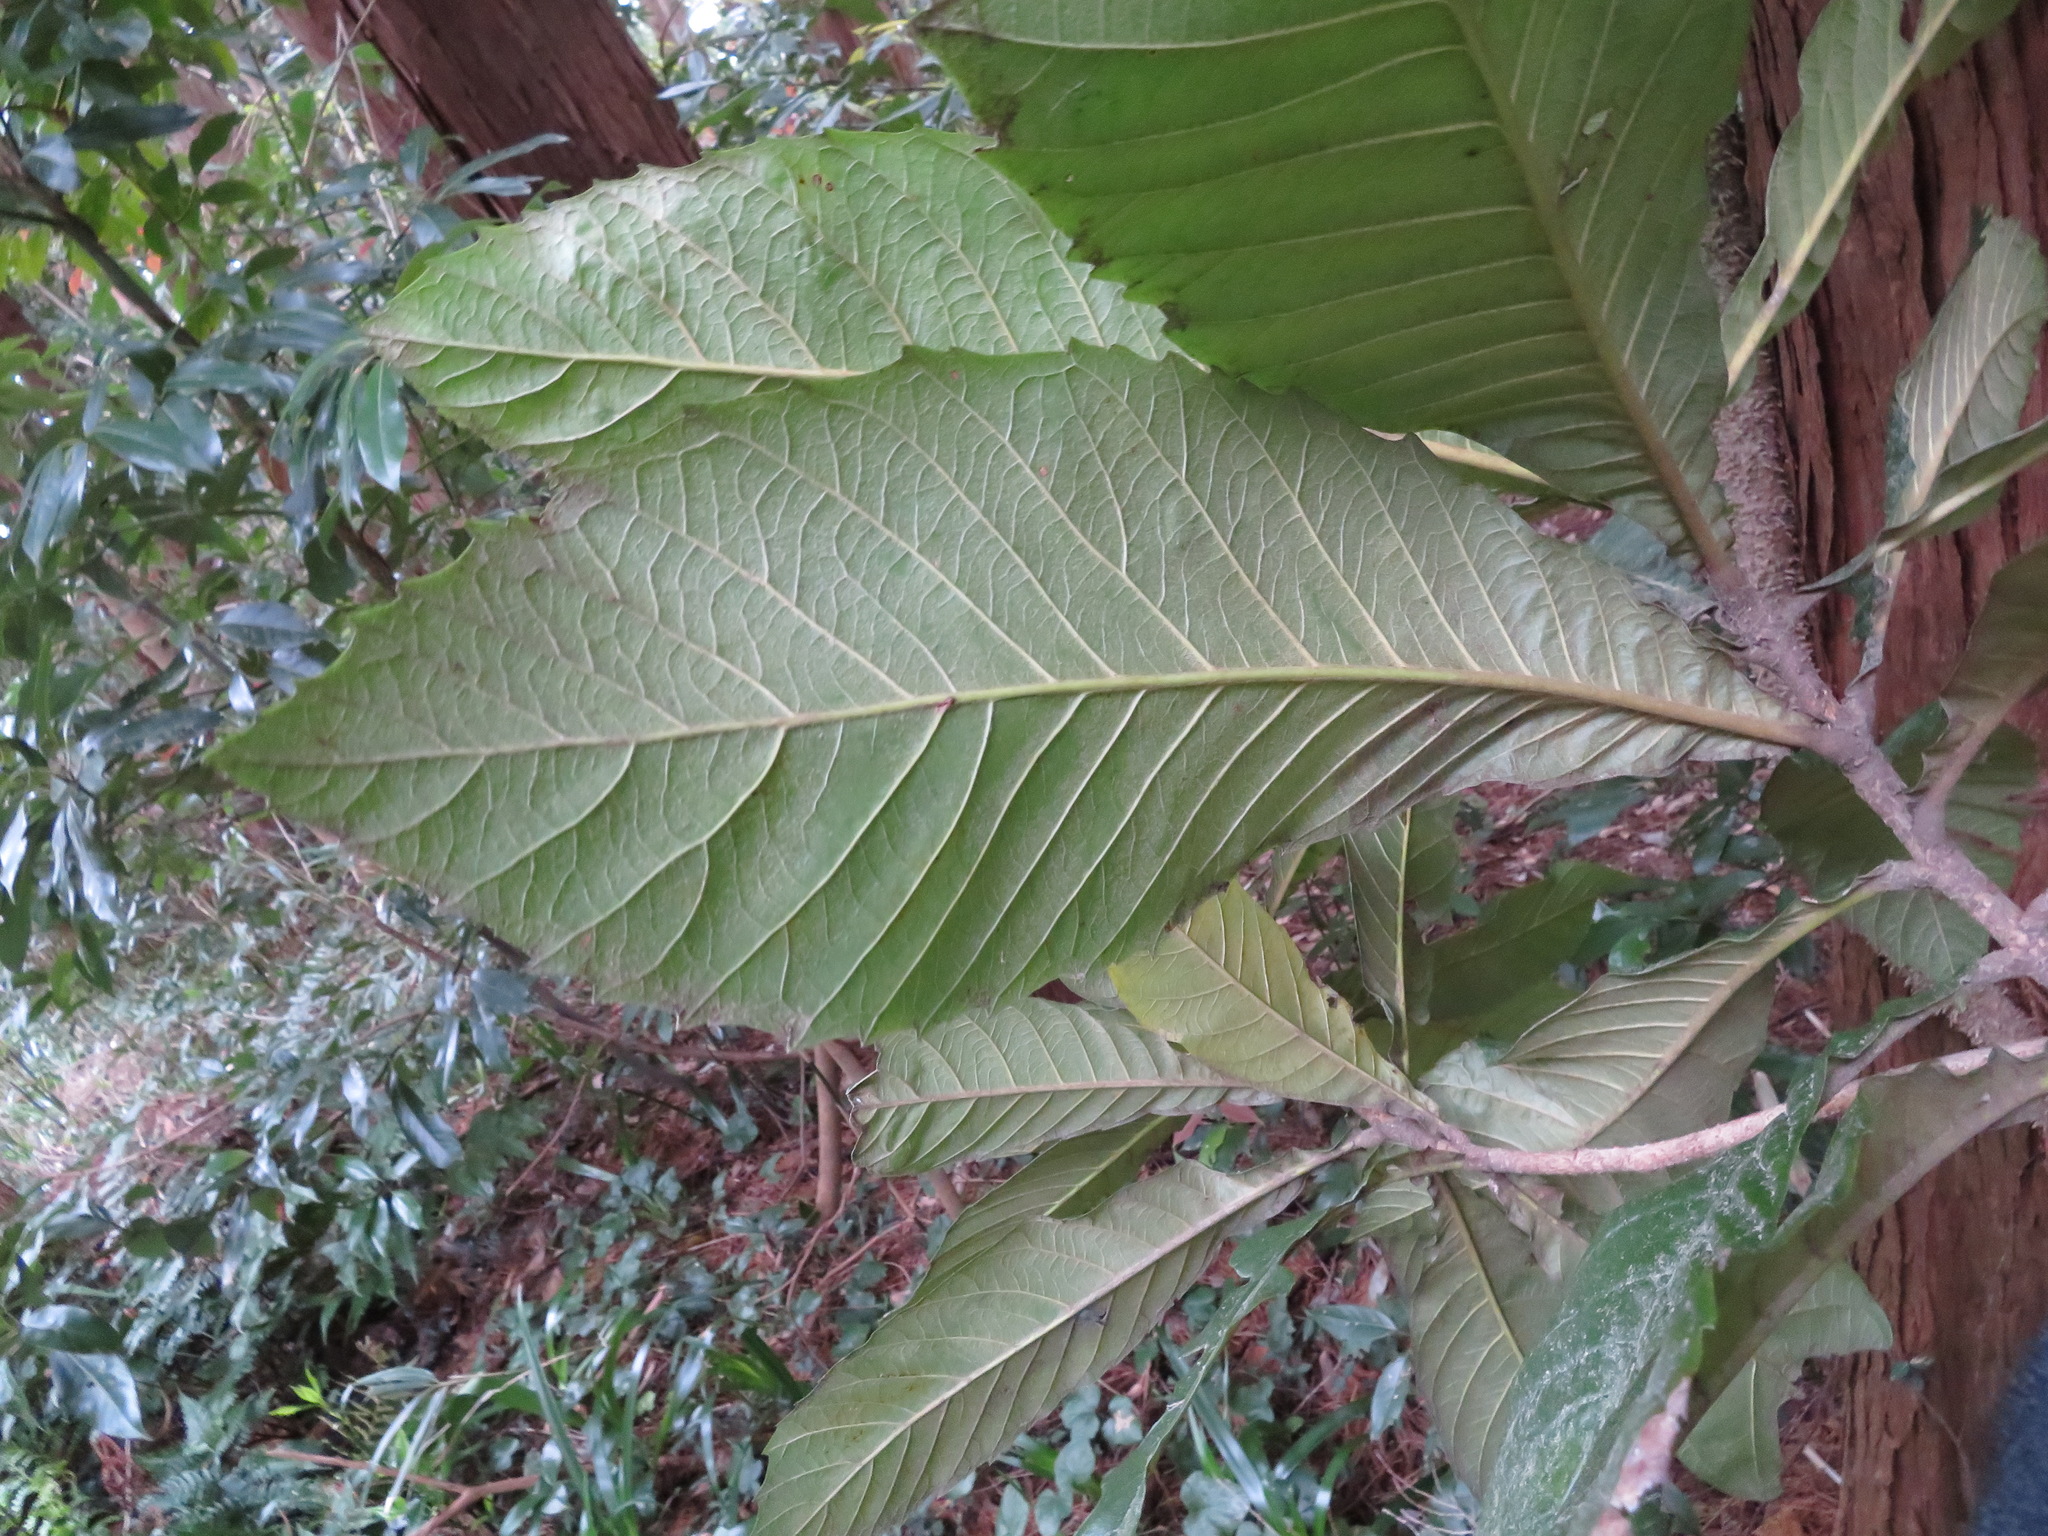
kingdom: Plantae
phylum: Tracheophyta
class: Magnoliopsida
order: Rosales
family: Rosaceae
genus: Rhaphiolepis
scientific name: Rhaphiolepis bibas
